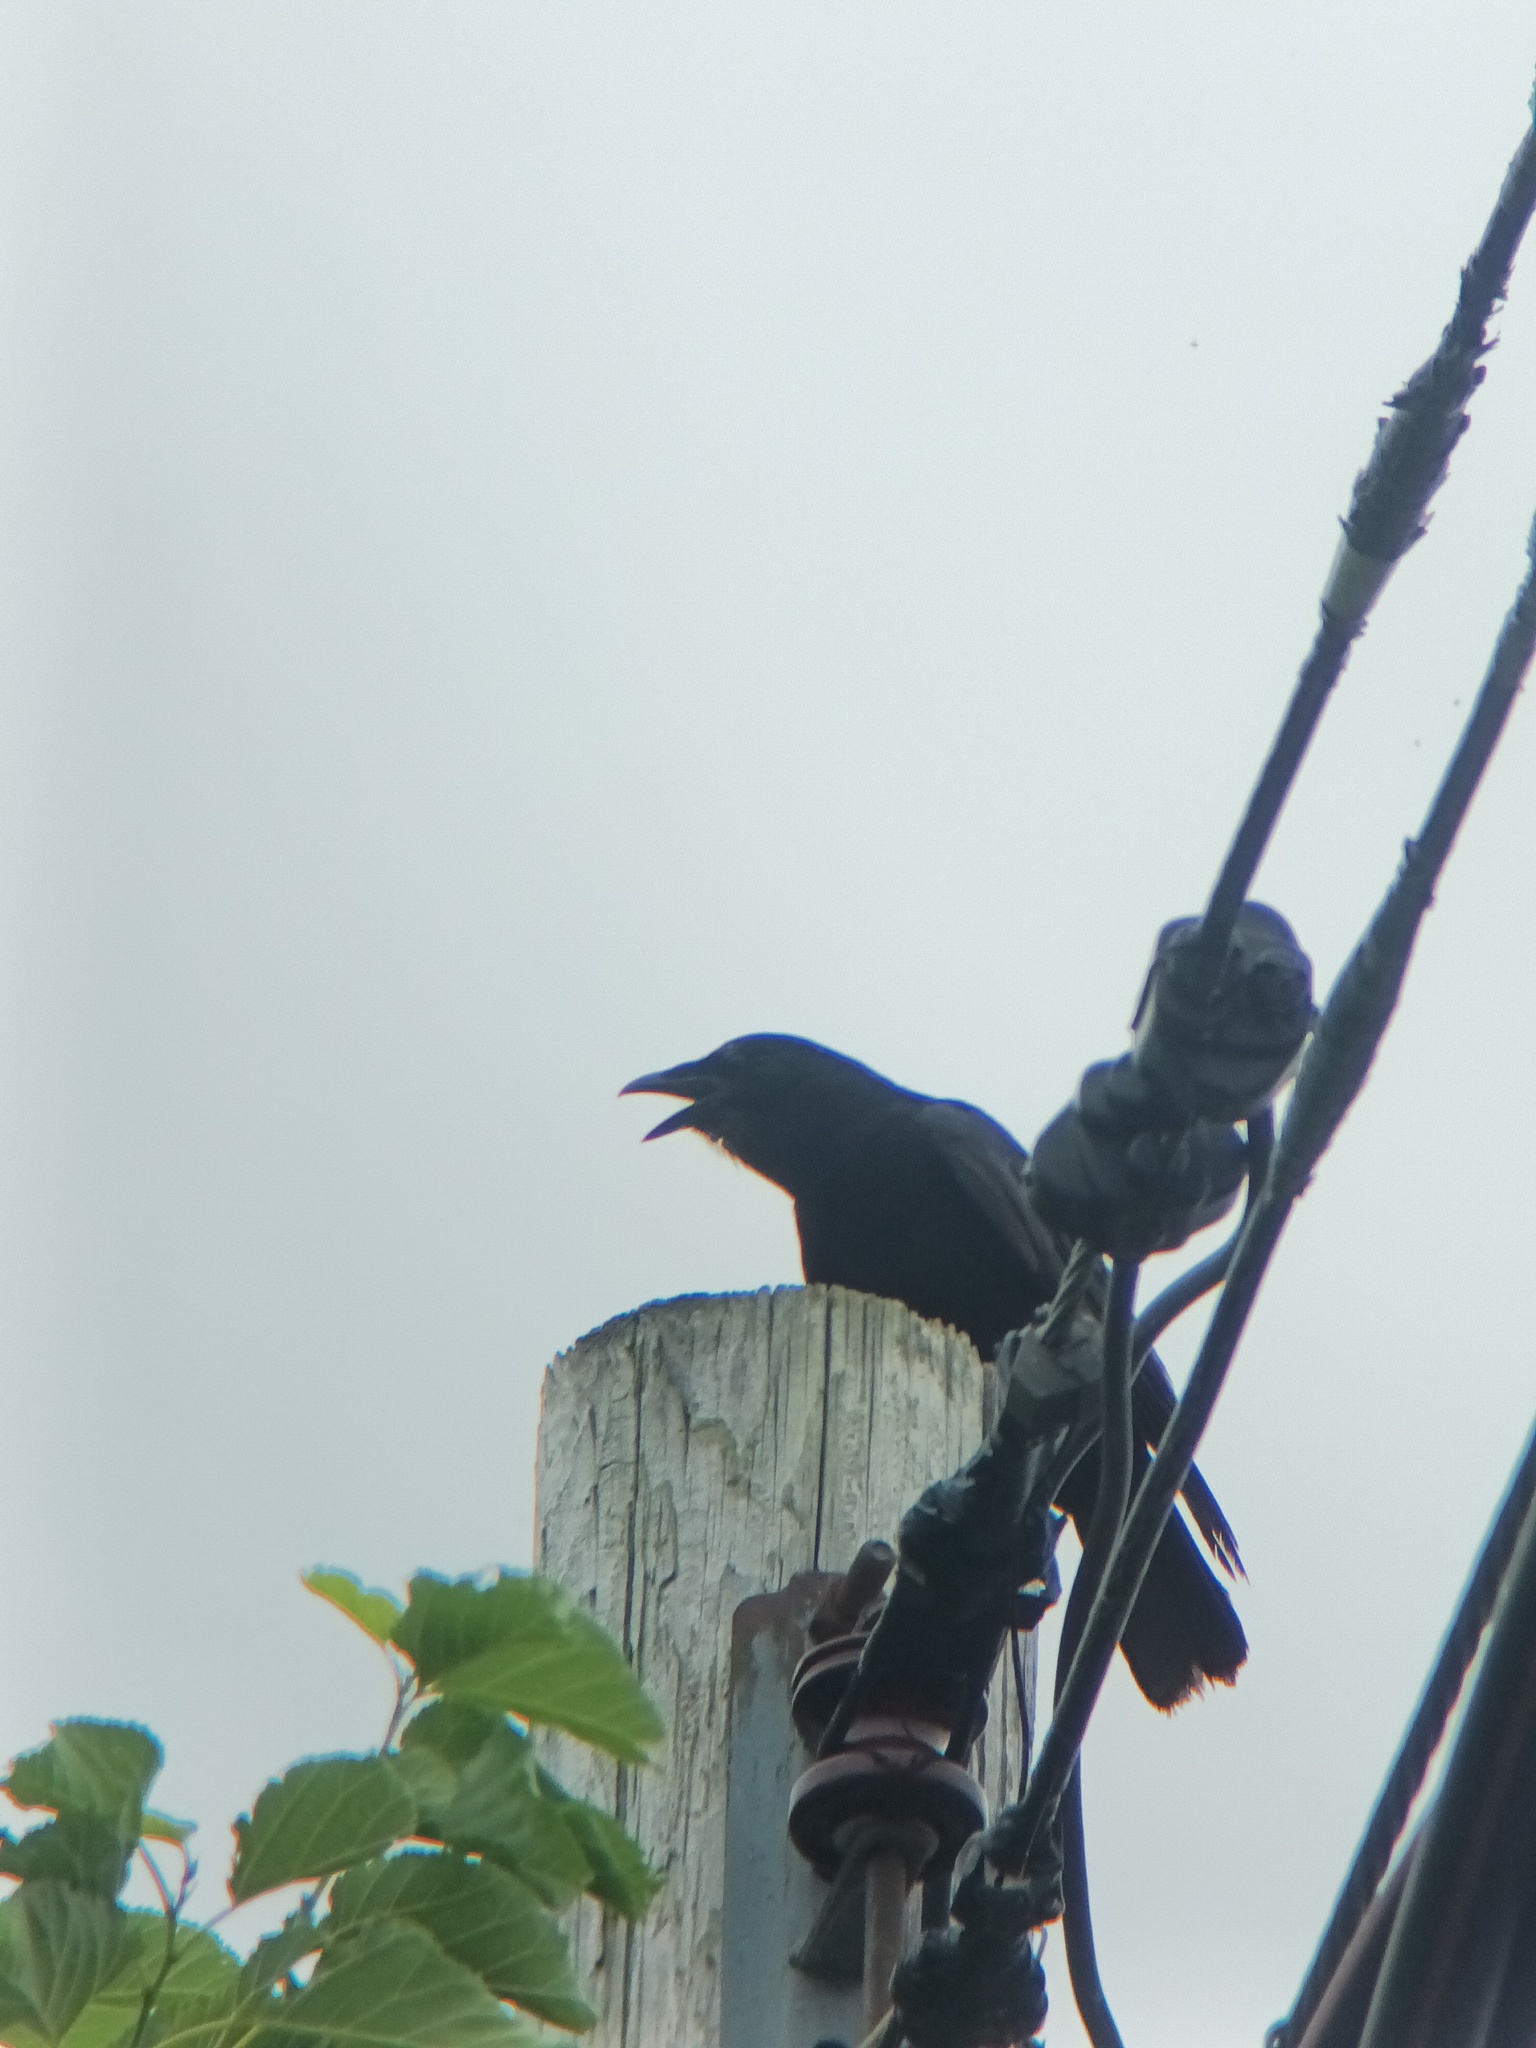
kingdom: Animalia
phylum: Chordata
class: Aves
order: Passeriformes
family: Corvidae
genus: Corvus
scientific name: Corvus ossifragus
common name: Fish crow
